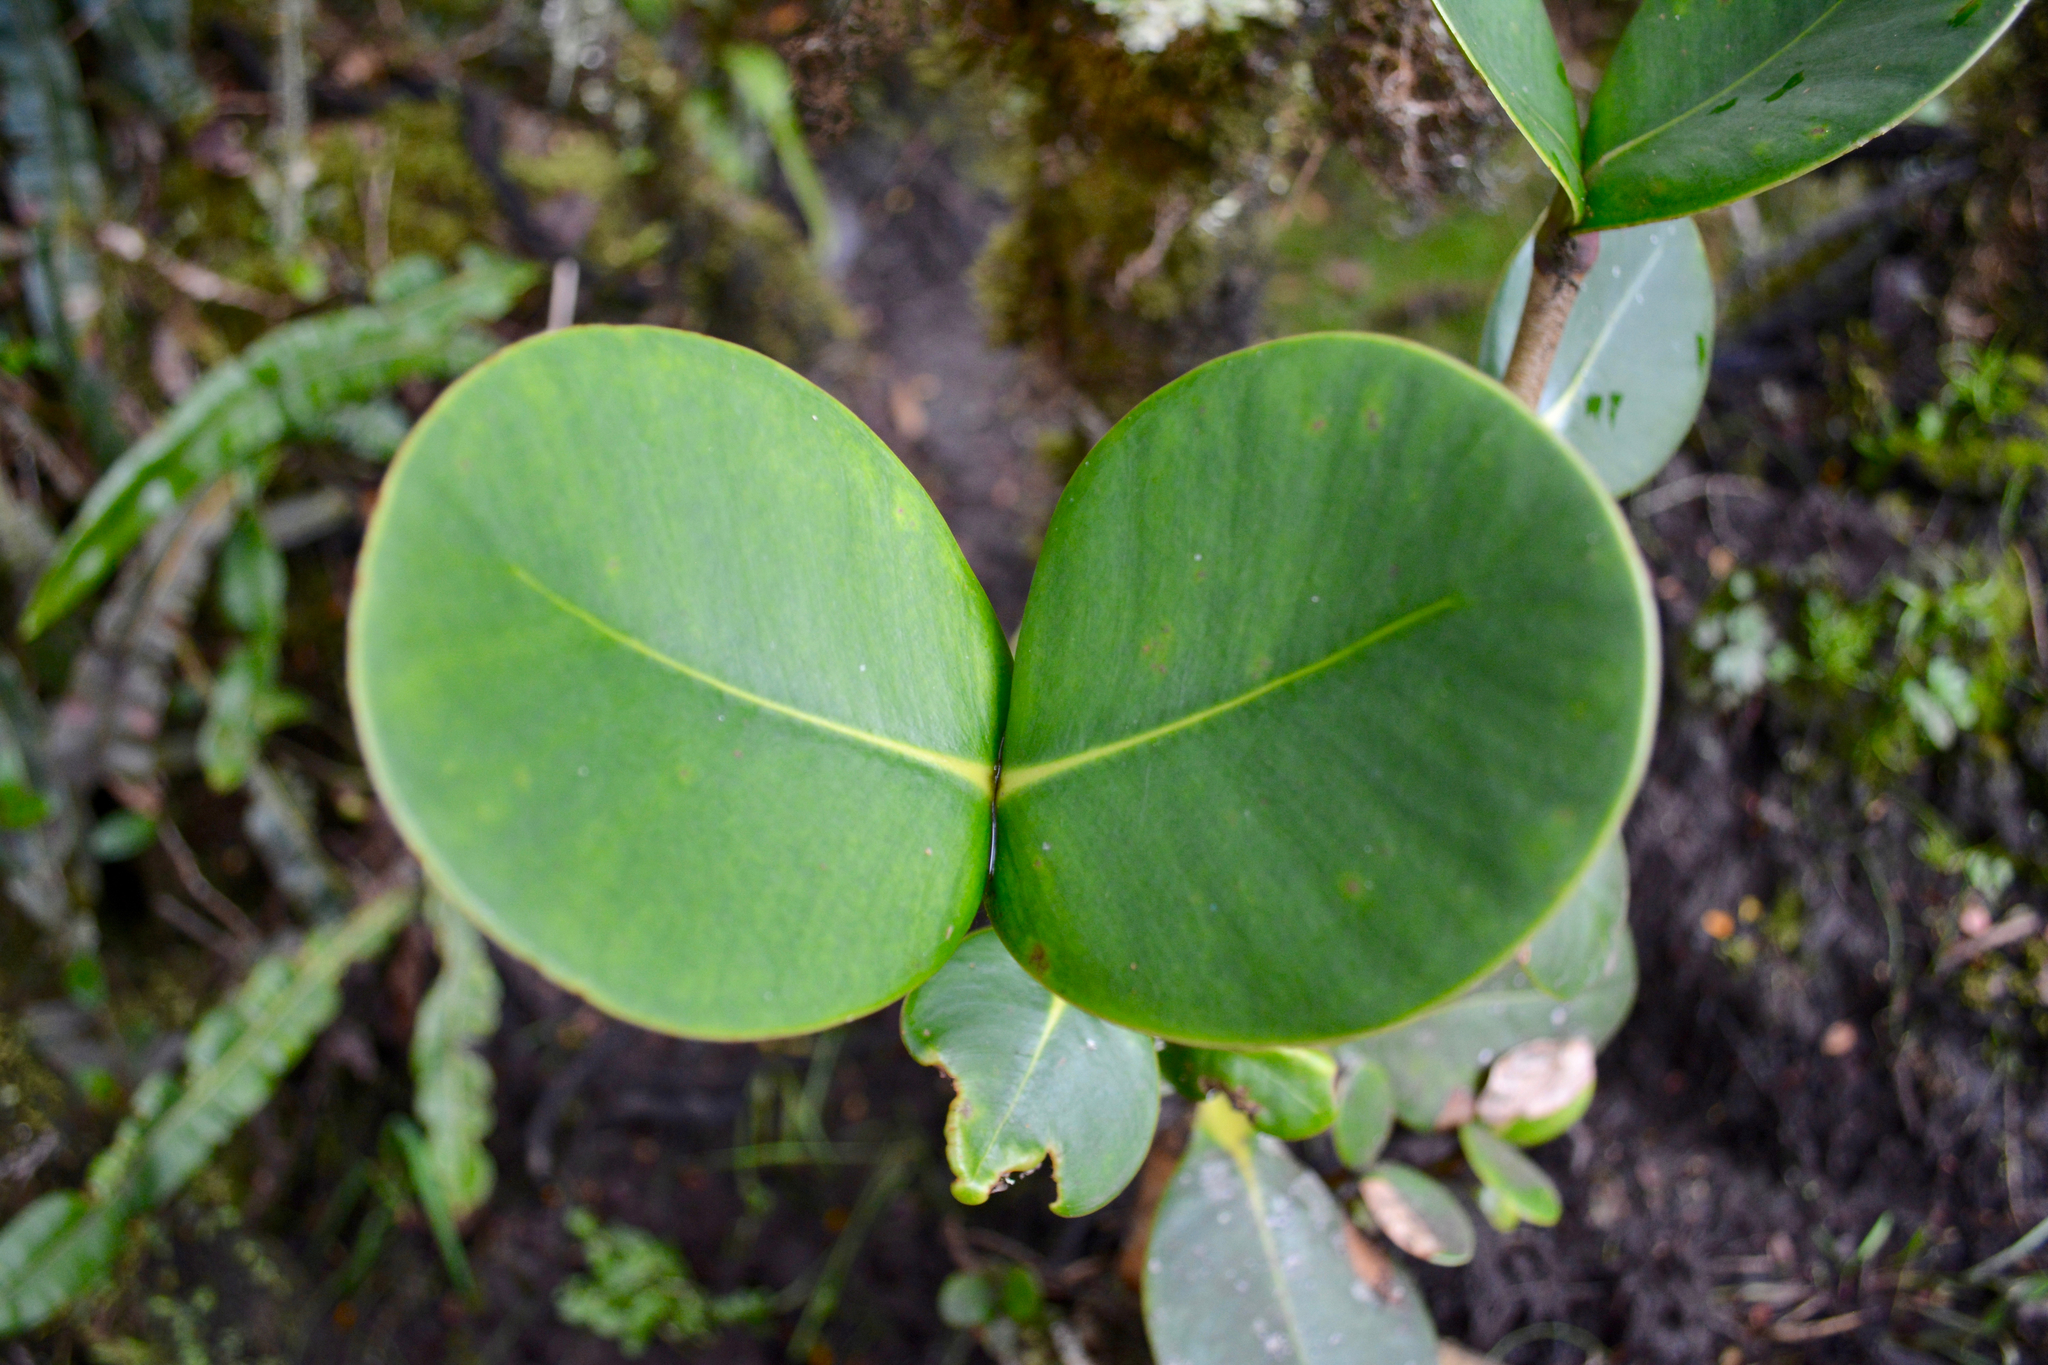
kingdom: Plantae
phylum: Tracheophyta
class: Magnoliopsida
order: Malpighiales
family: Clusiaceae
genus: Clusia
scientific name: Clusia multiflora
